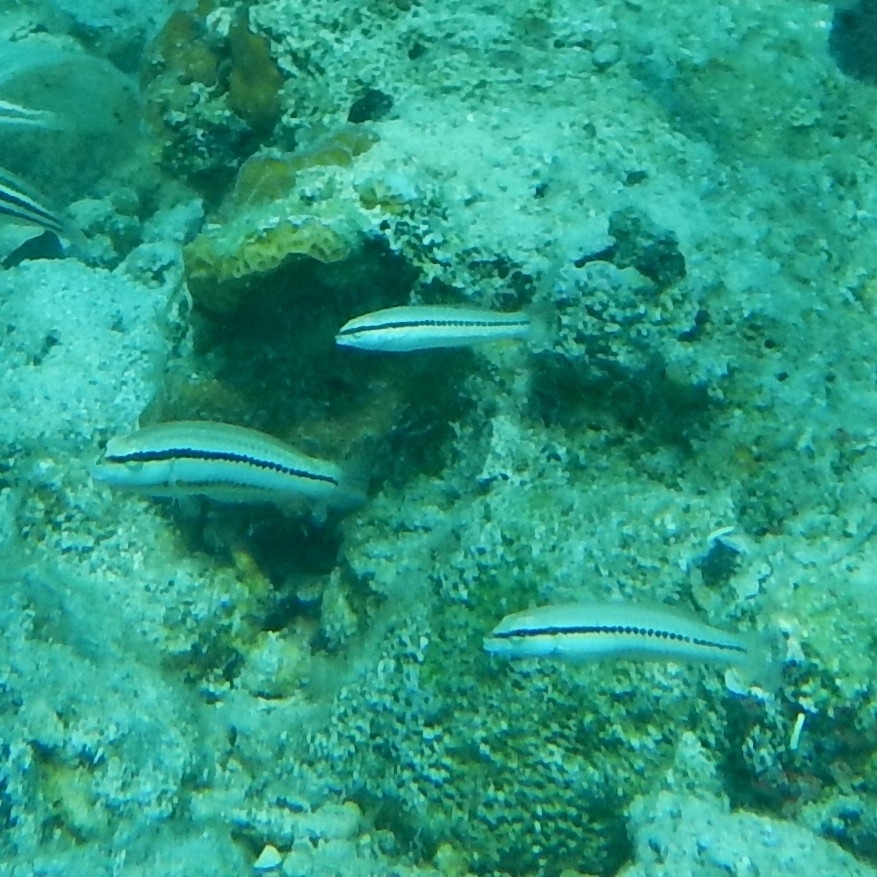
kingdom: Animalia
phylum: Chordata
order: Perciformes
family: Labridae
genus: Halichoeres
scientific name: Halichoeres bivittatus
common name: Slippery dick
